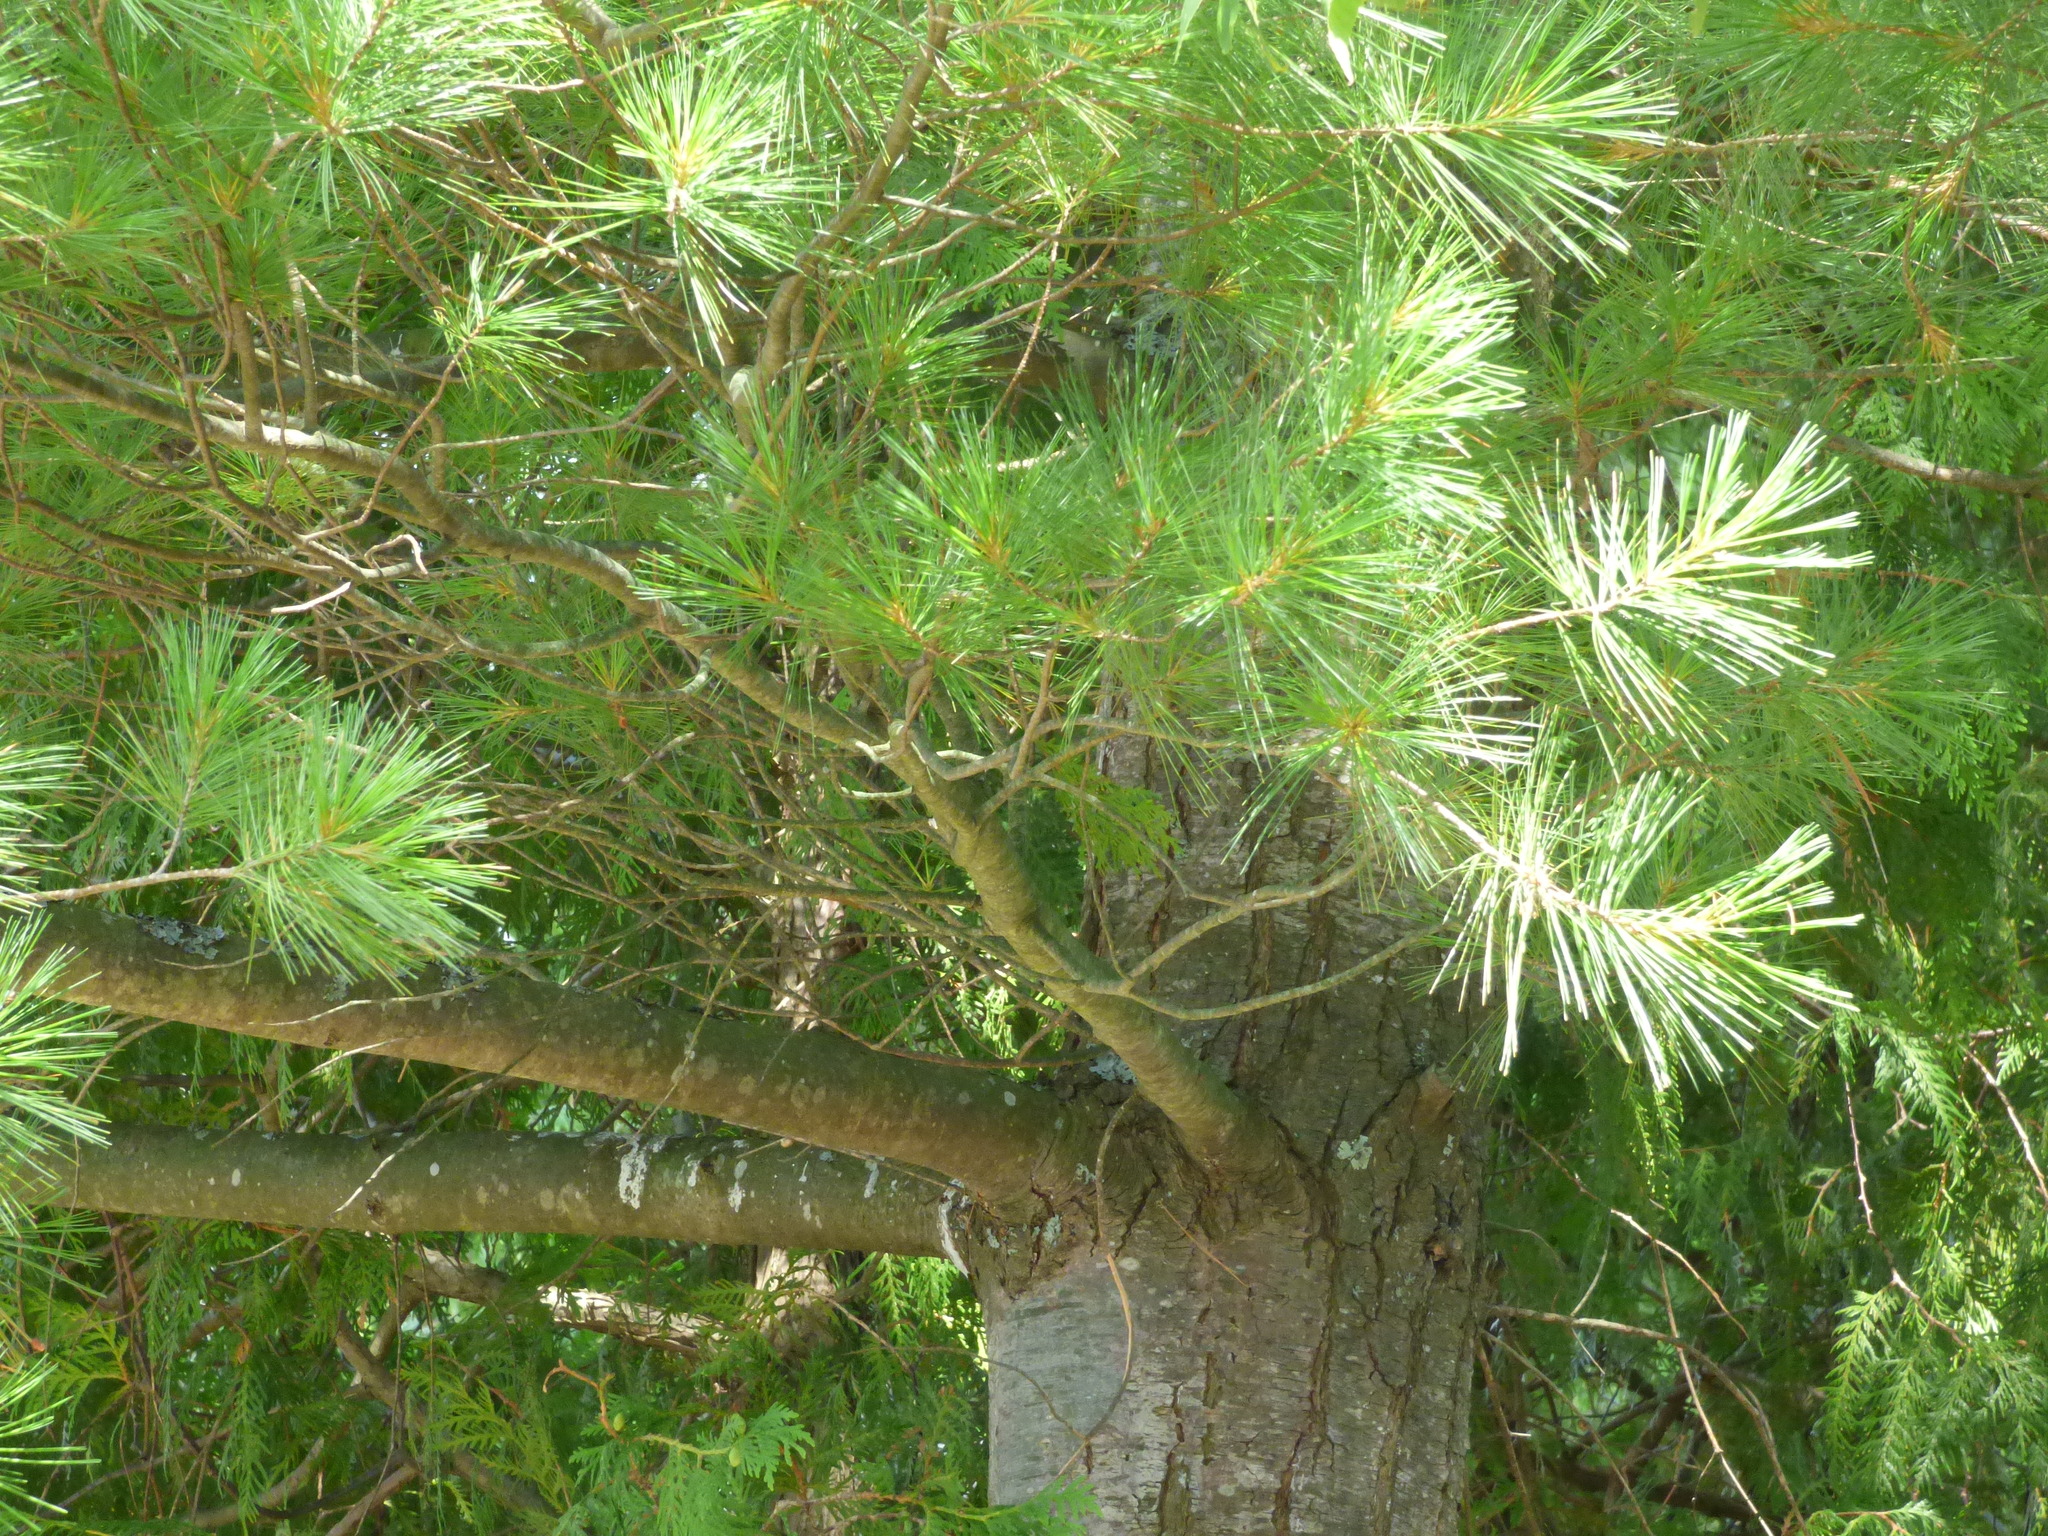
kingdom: Plantae
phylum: Tracheophyta
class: Pinopsida
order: Pinales
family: Pinaceae
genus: Pinus
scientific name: Pinus strobus
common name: Weymouth pine
